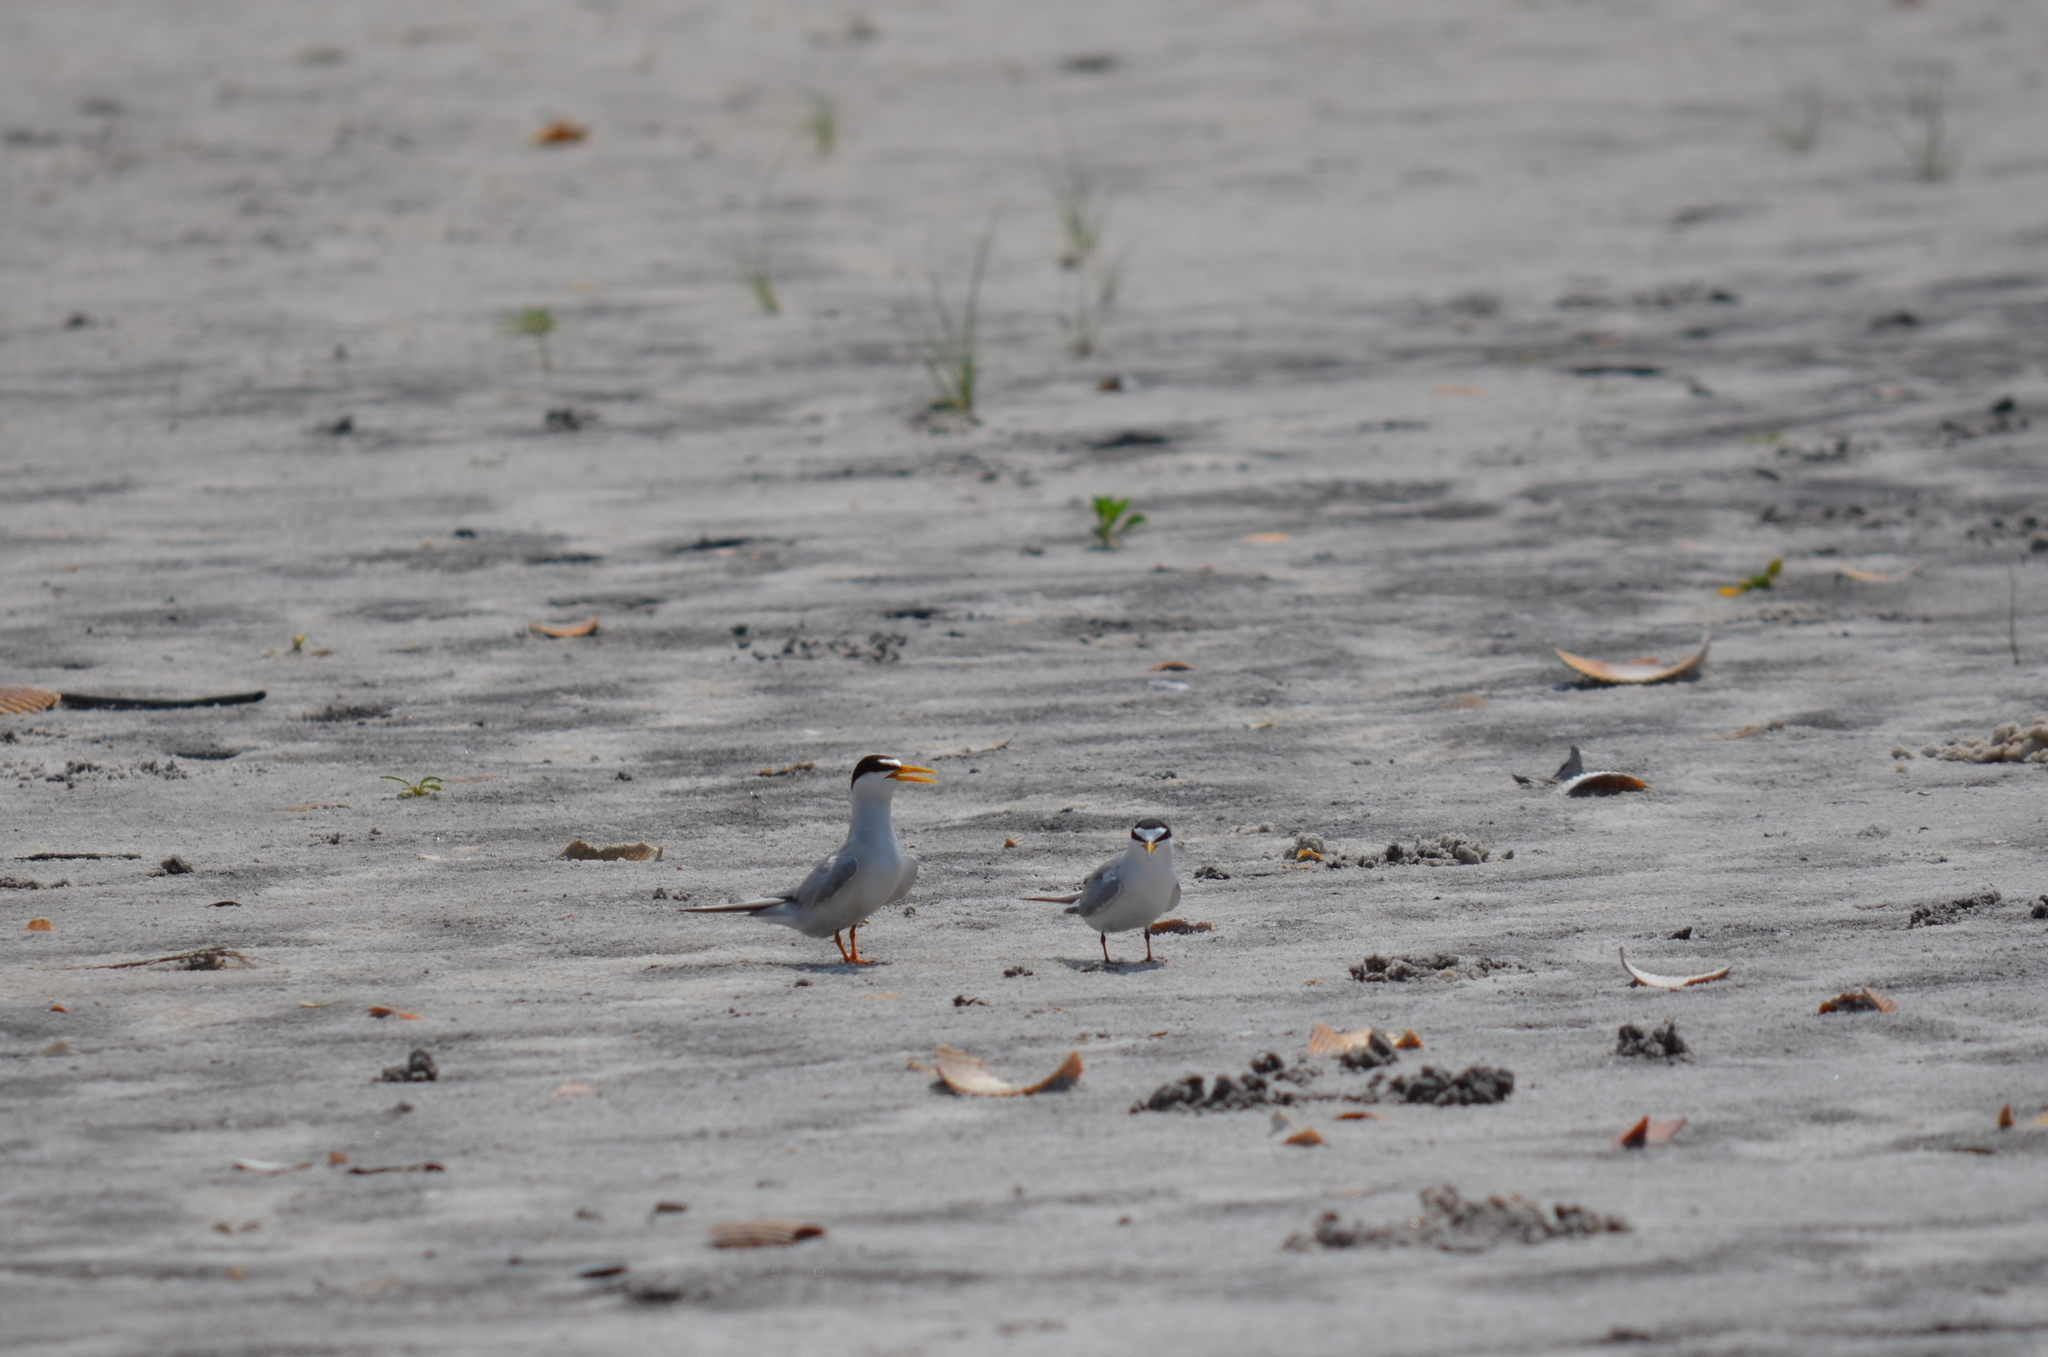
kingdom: Animalia
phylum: Chordata
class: Aves
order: Charadriiformes
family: Laridae
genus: Sternula
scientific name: Sternula antillarum
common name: Least tern
